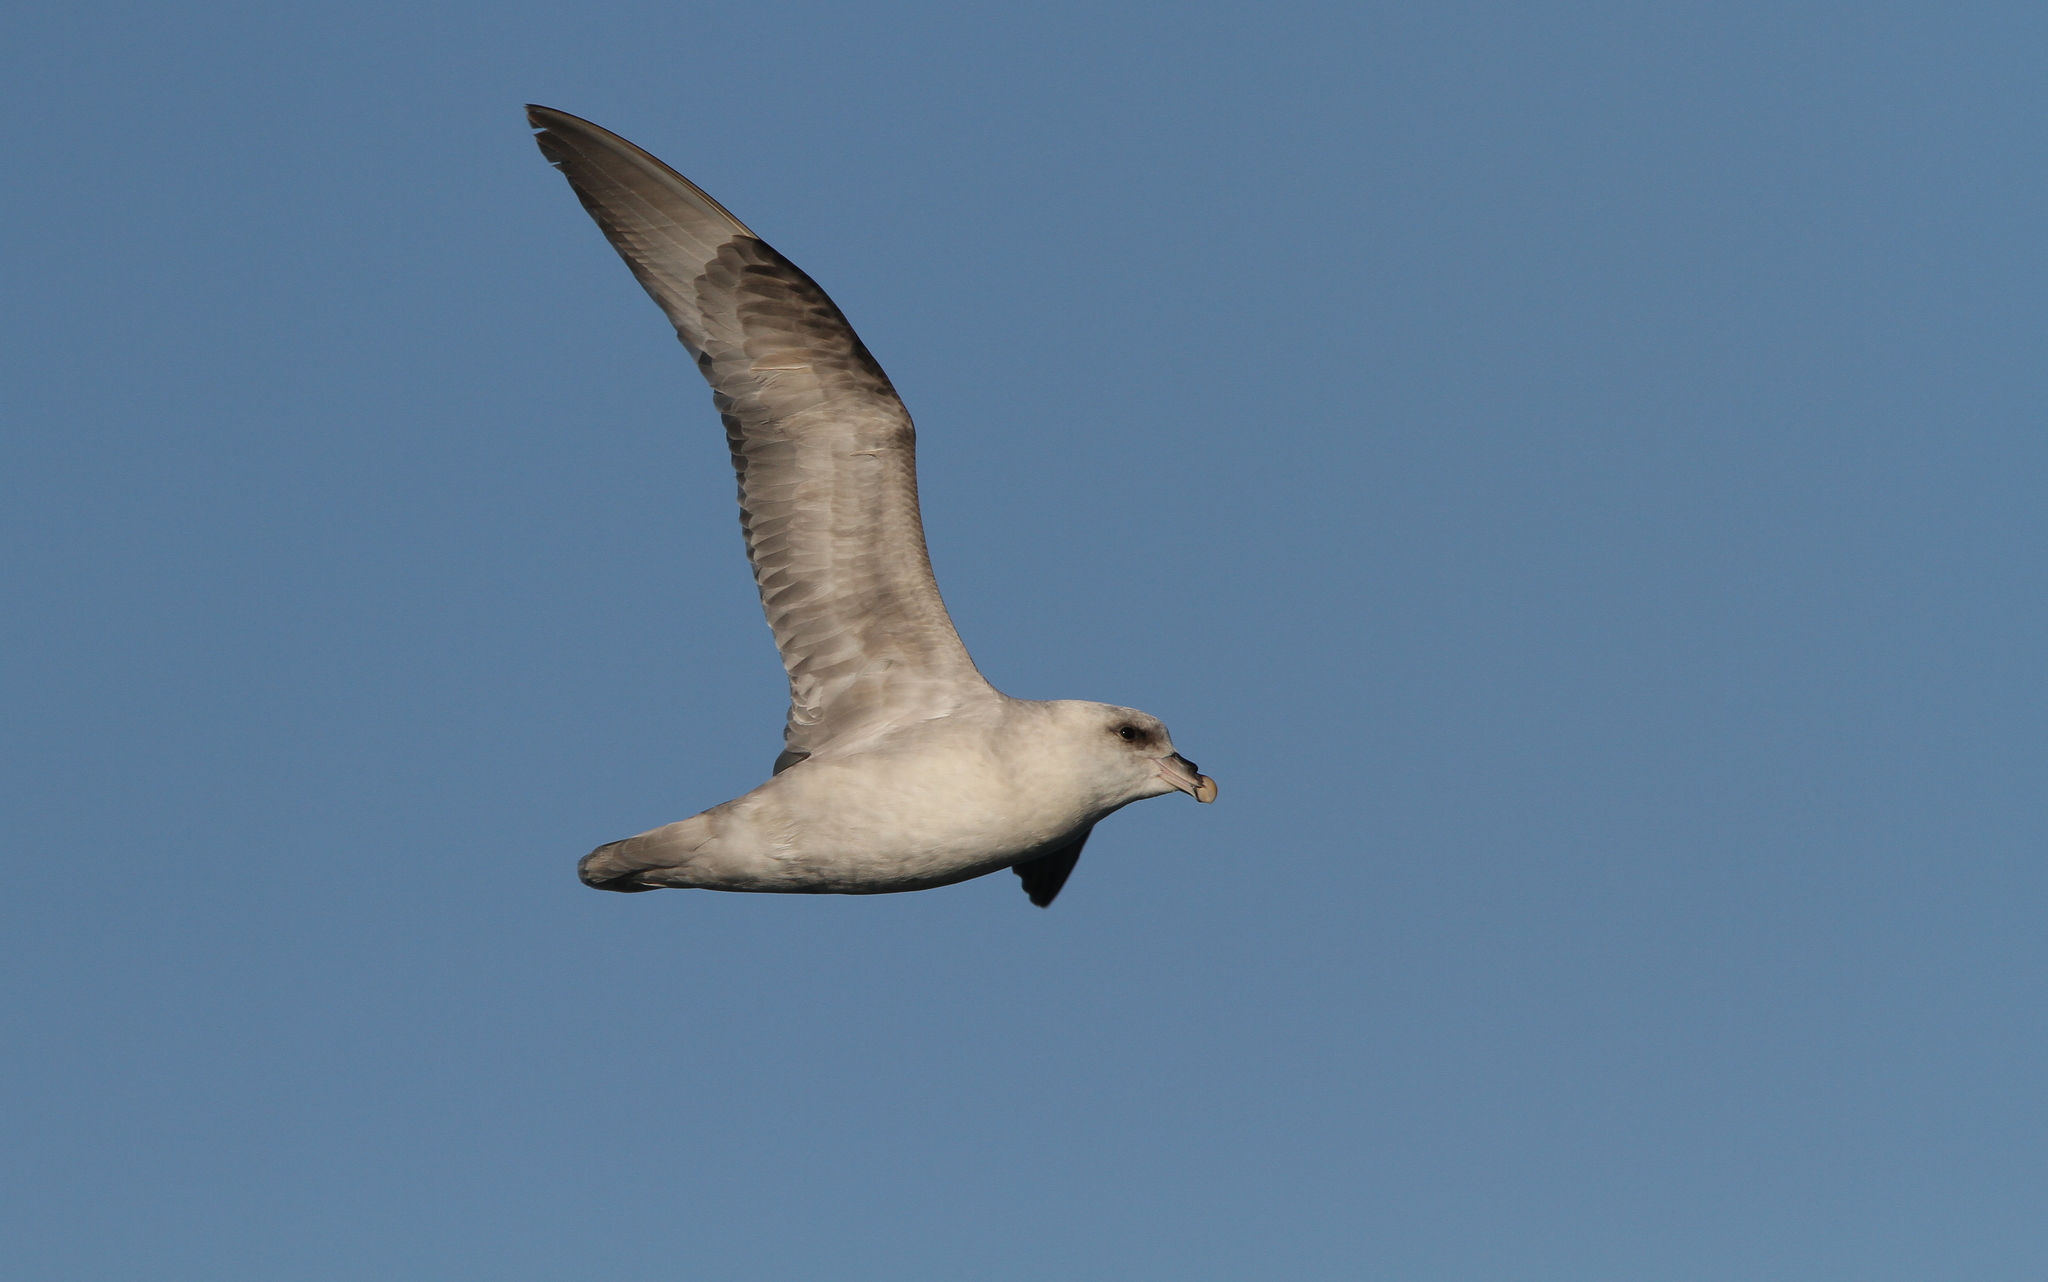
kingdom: Animalia
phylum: Chordata
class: Aves
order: Procellariiformes
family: Procellariidae
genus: Fulmarus
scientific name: Fulmarus glacialis
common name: Northern fulmar
